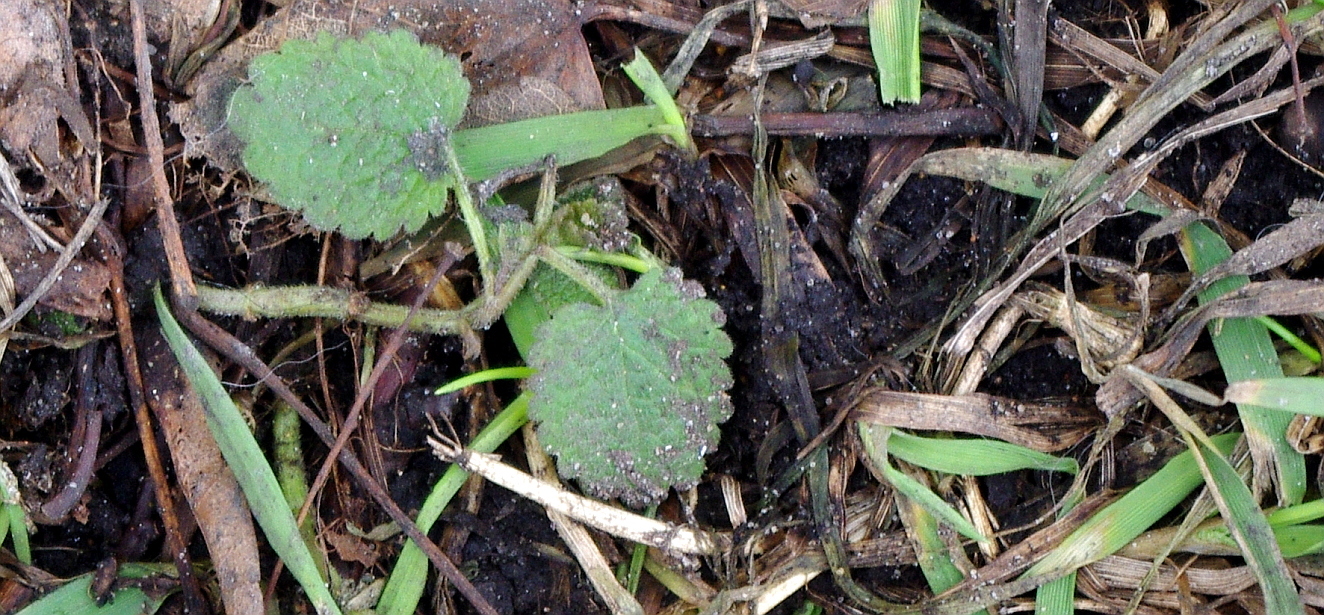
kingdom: Plantae
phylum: Tracheophyta
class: Magnoliopsida
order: Lamiales
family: Lamiaceae
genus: Lamium
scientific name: Lamium album
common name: White dead-nettle
